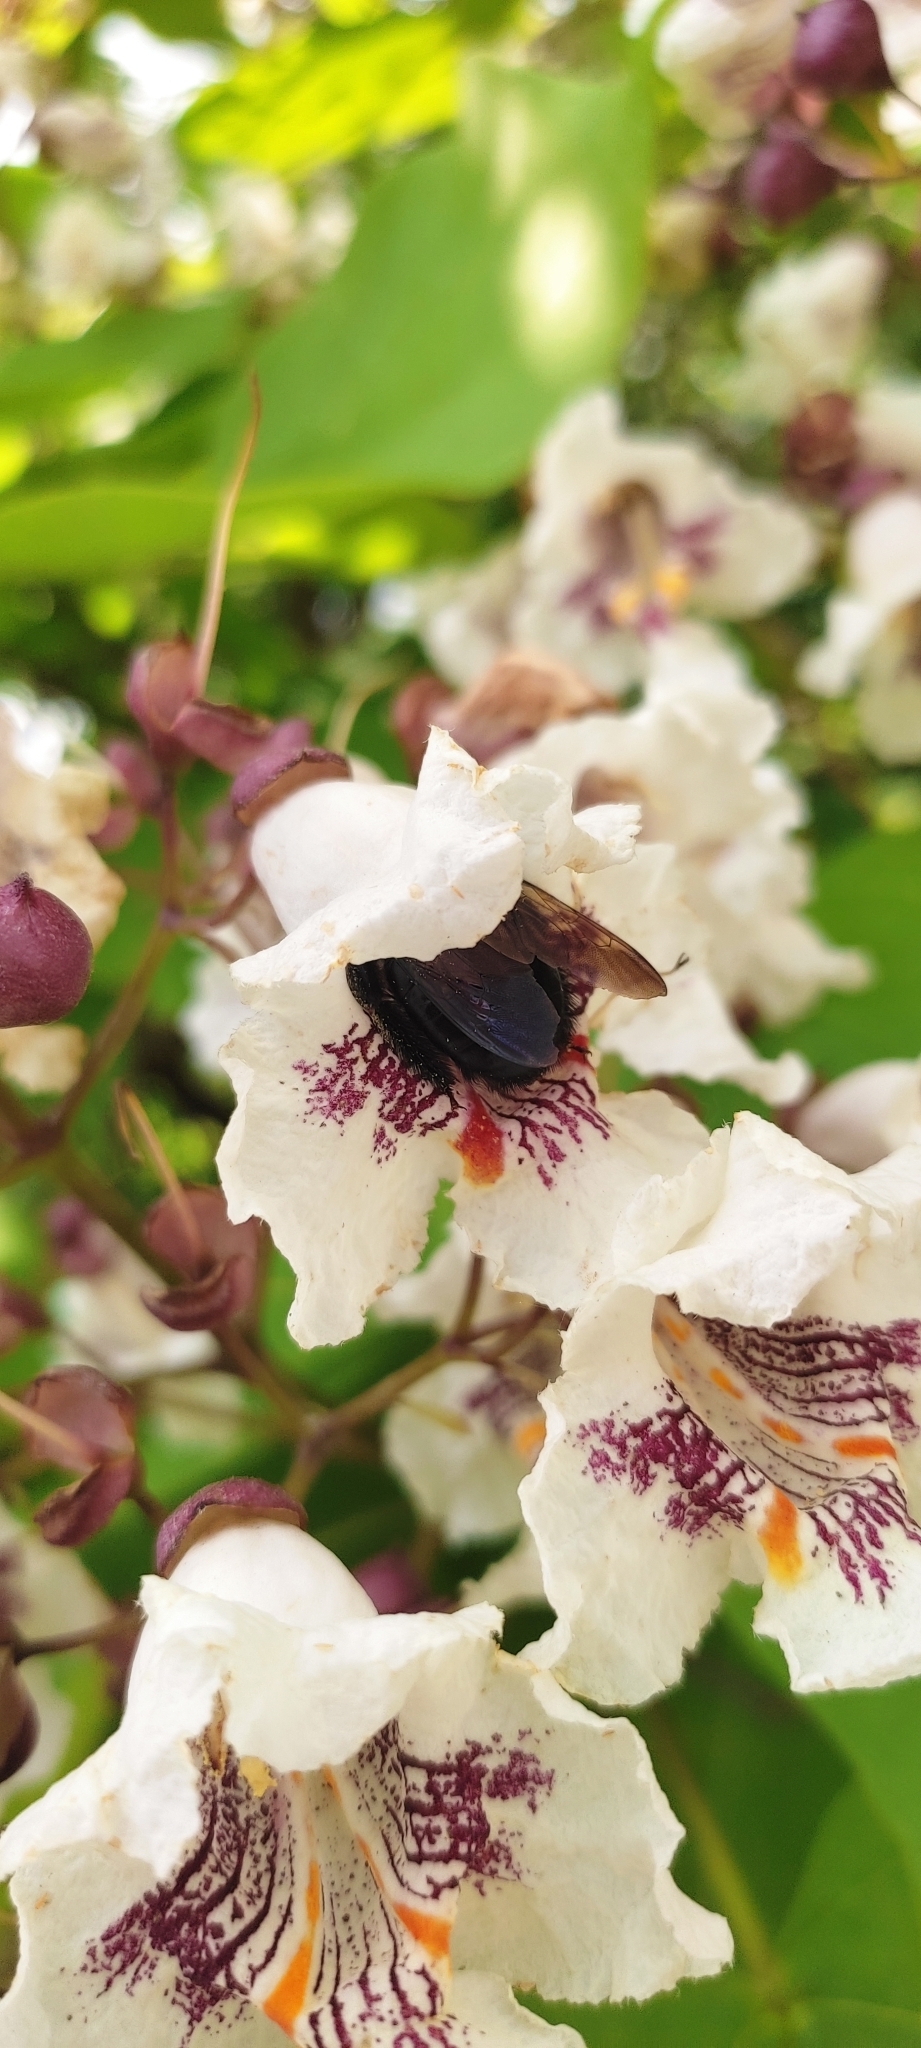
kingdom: Animalia
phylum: Arthropoda
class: Insecta
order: Hymenoptera
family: Apidae
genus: Xylocopa
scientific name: Xylocopa virginica
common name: Carpenter bee
